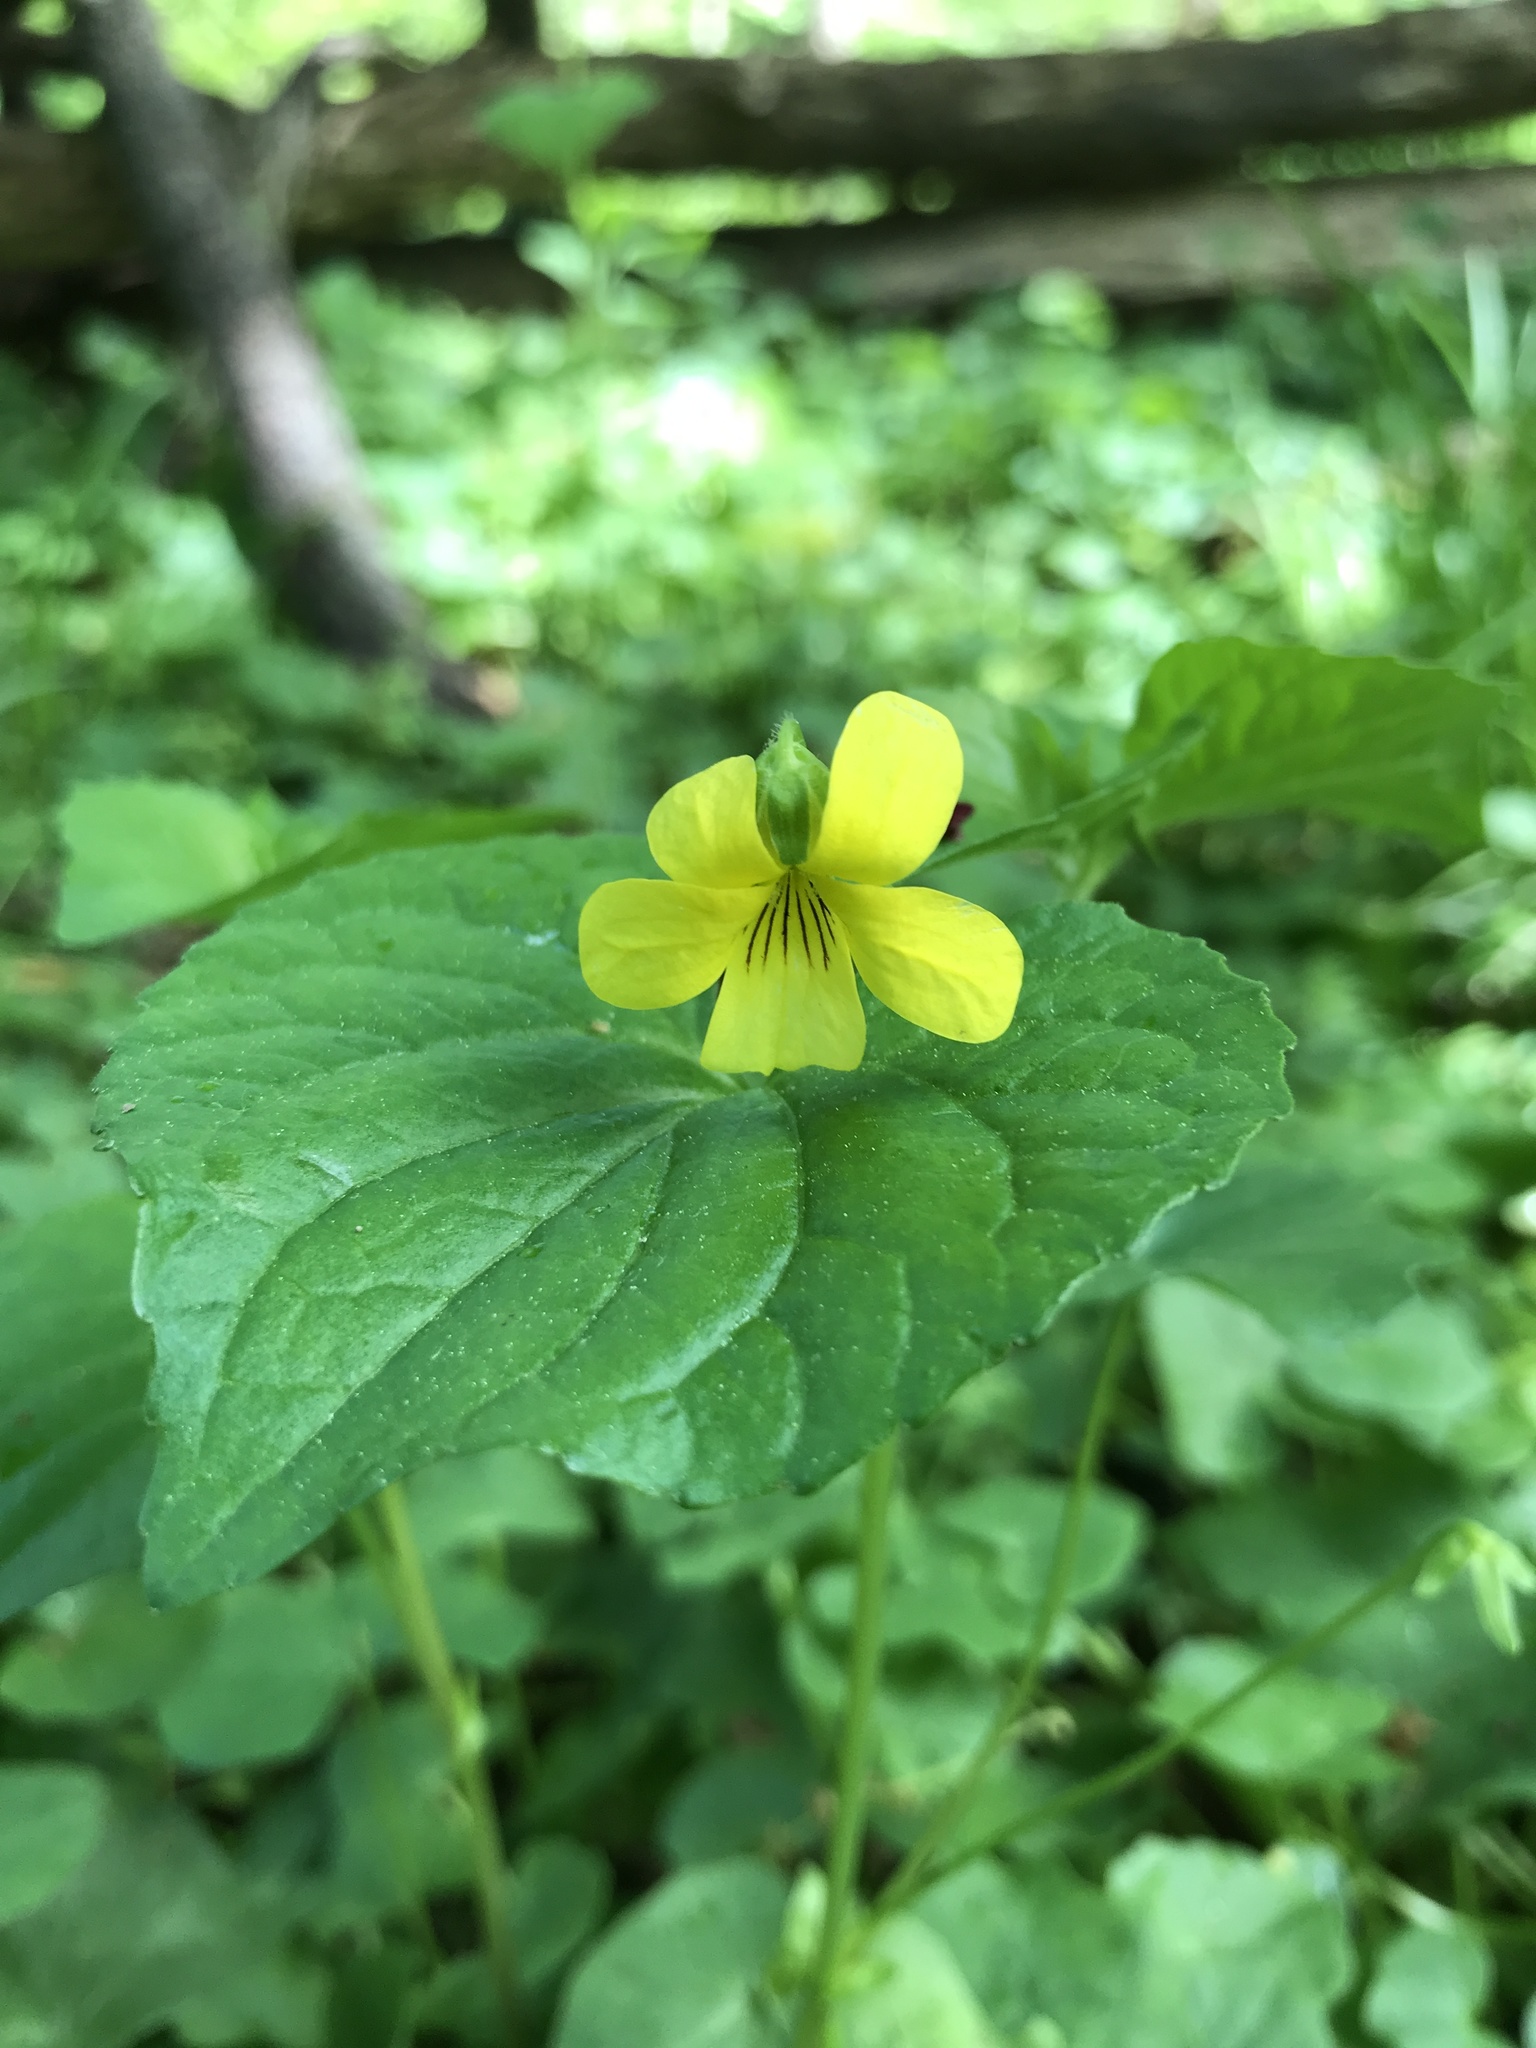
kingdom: Plantae
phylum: Tracheophyta
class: Magnoliopsida
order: Malpighiales
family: Violaceae
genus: Viola
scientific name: Viola eriocarpa
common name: Smooth yellow violet
